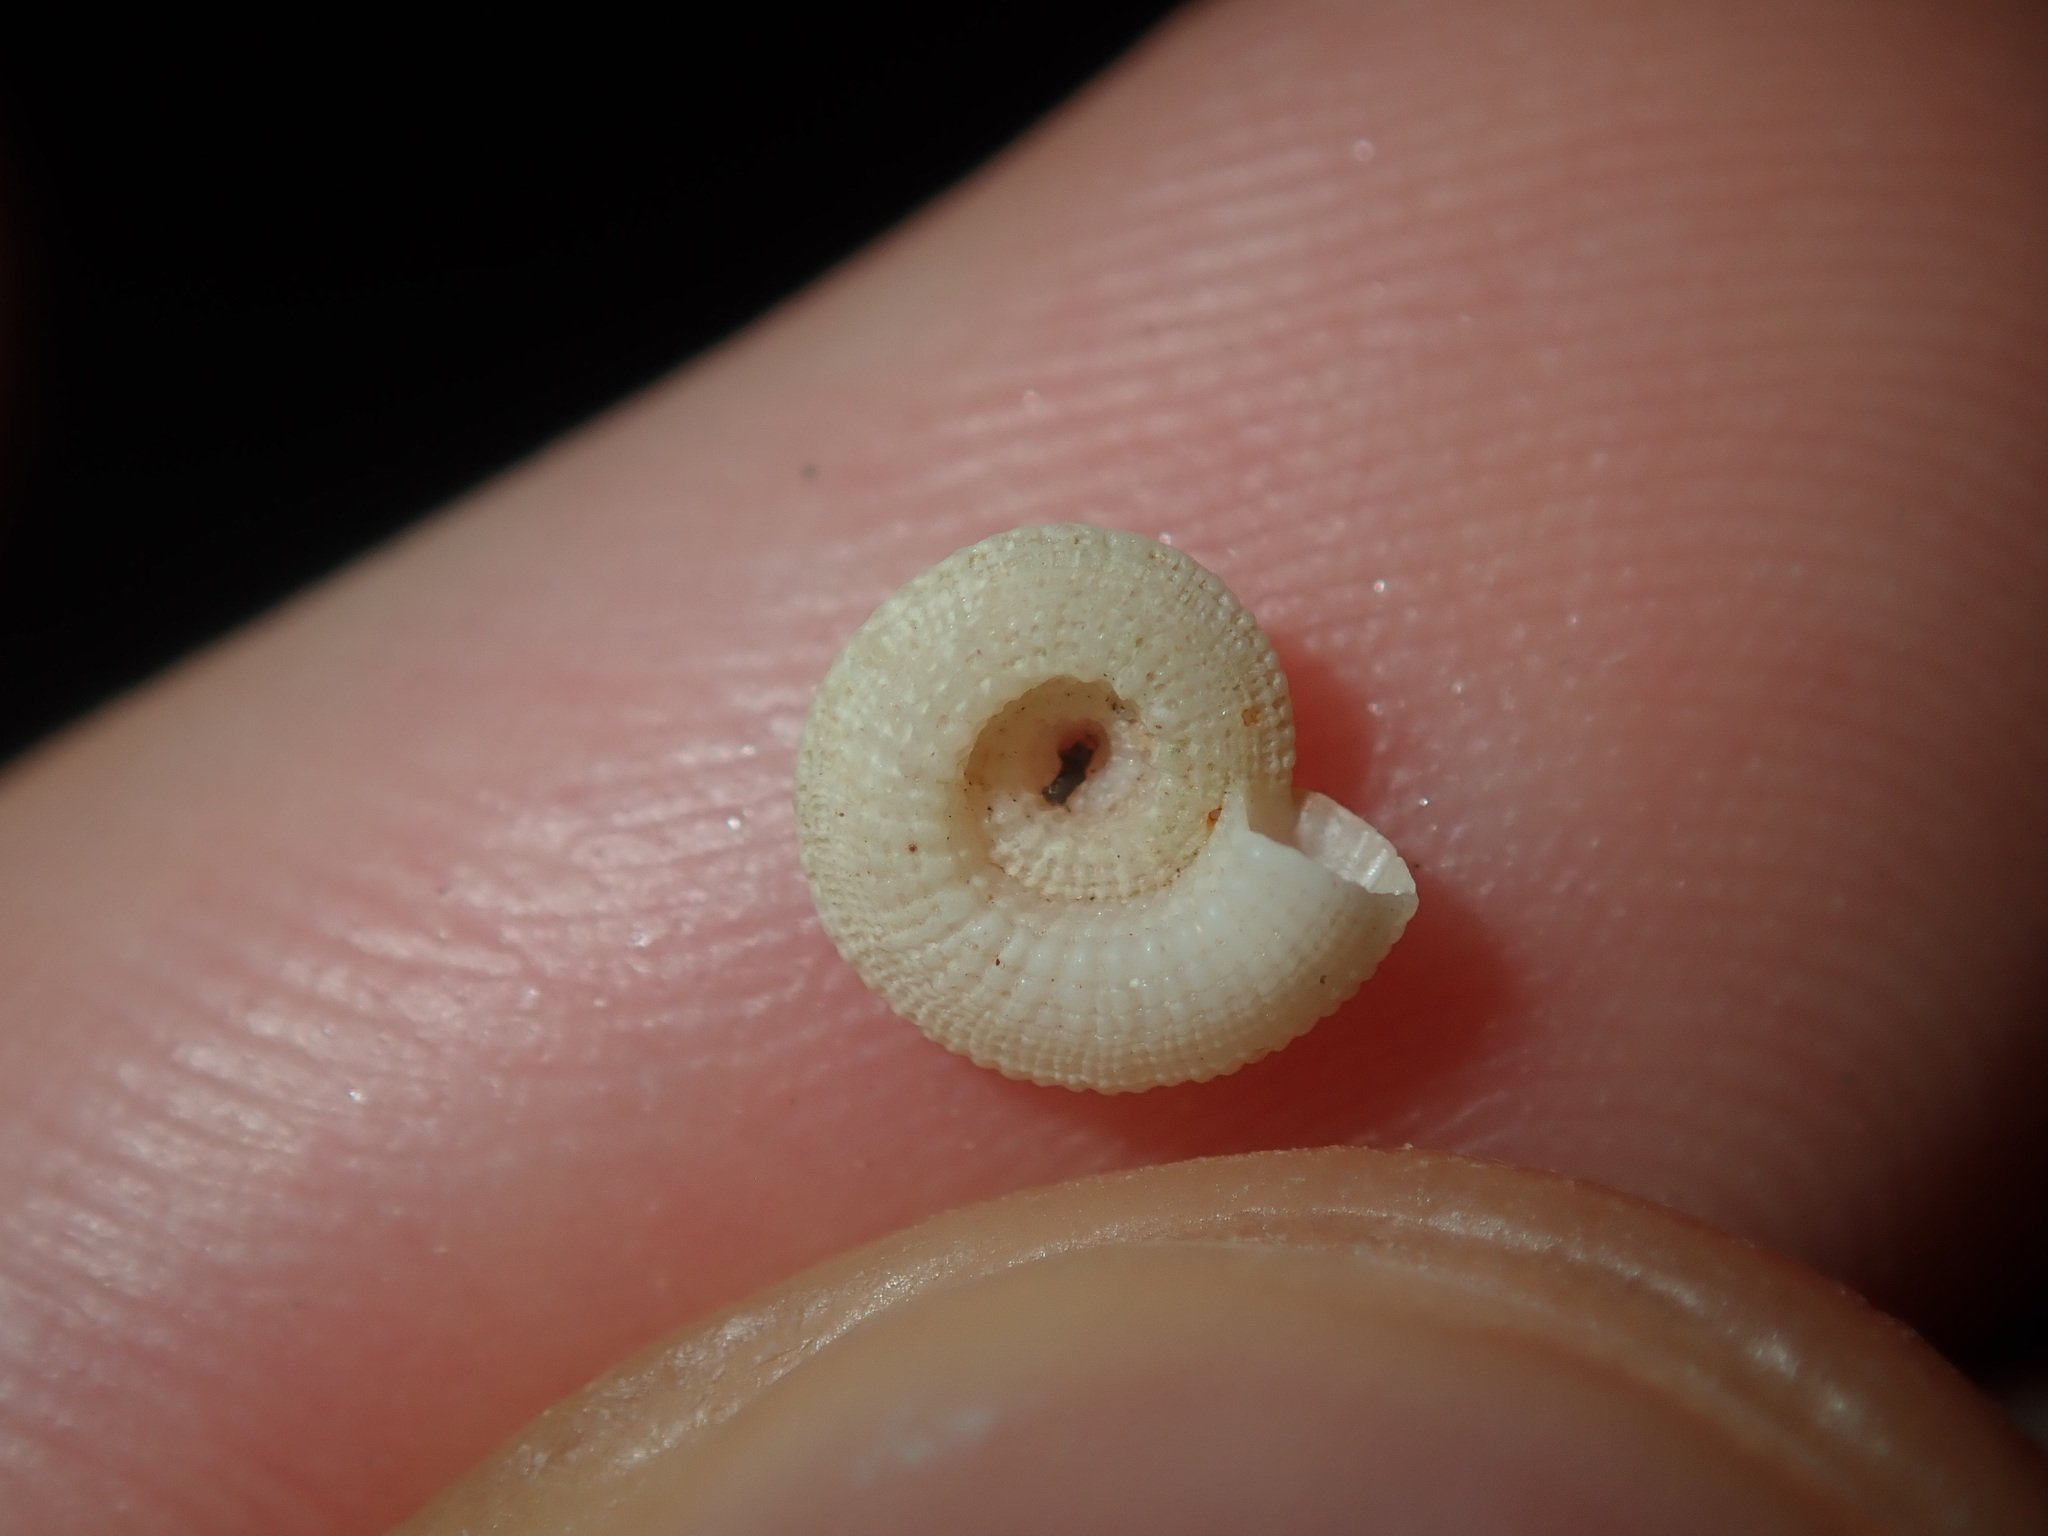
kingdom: Animalia
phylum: Mollusca
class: Gastropoda
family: Architectonicidae
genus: Pseudotorinia
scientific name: Pseudotorinia delectabilis
